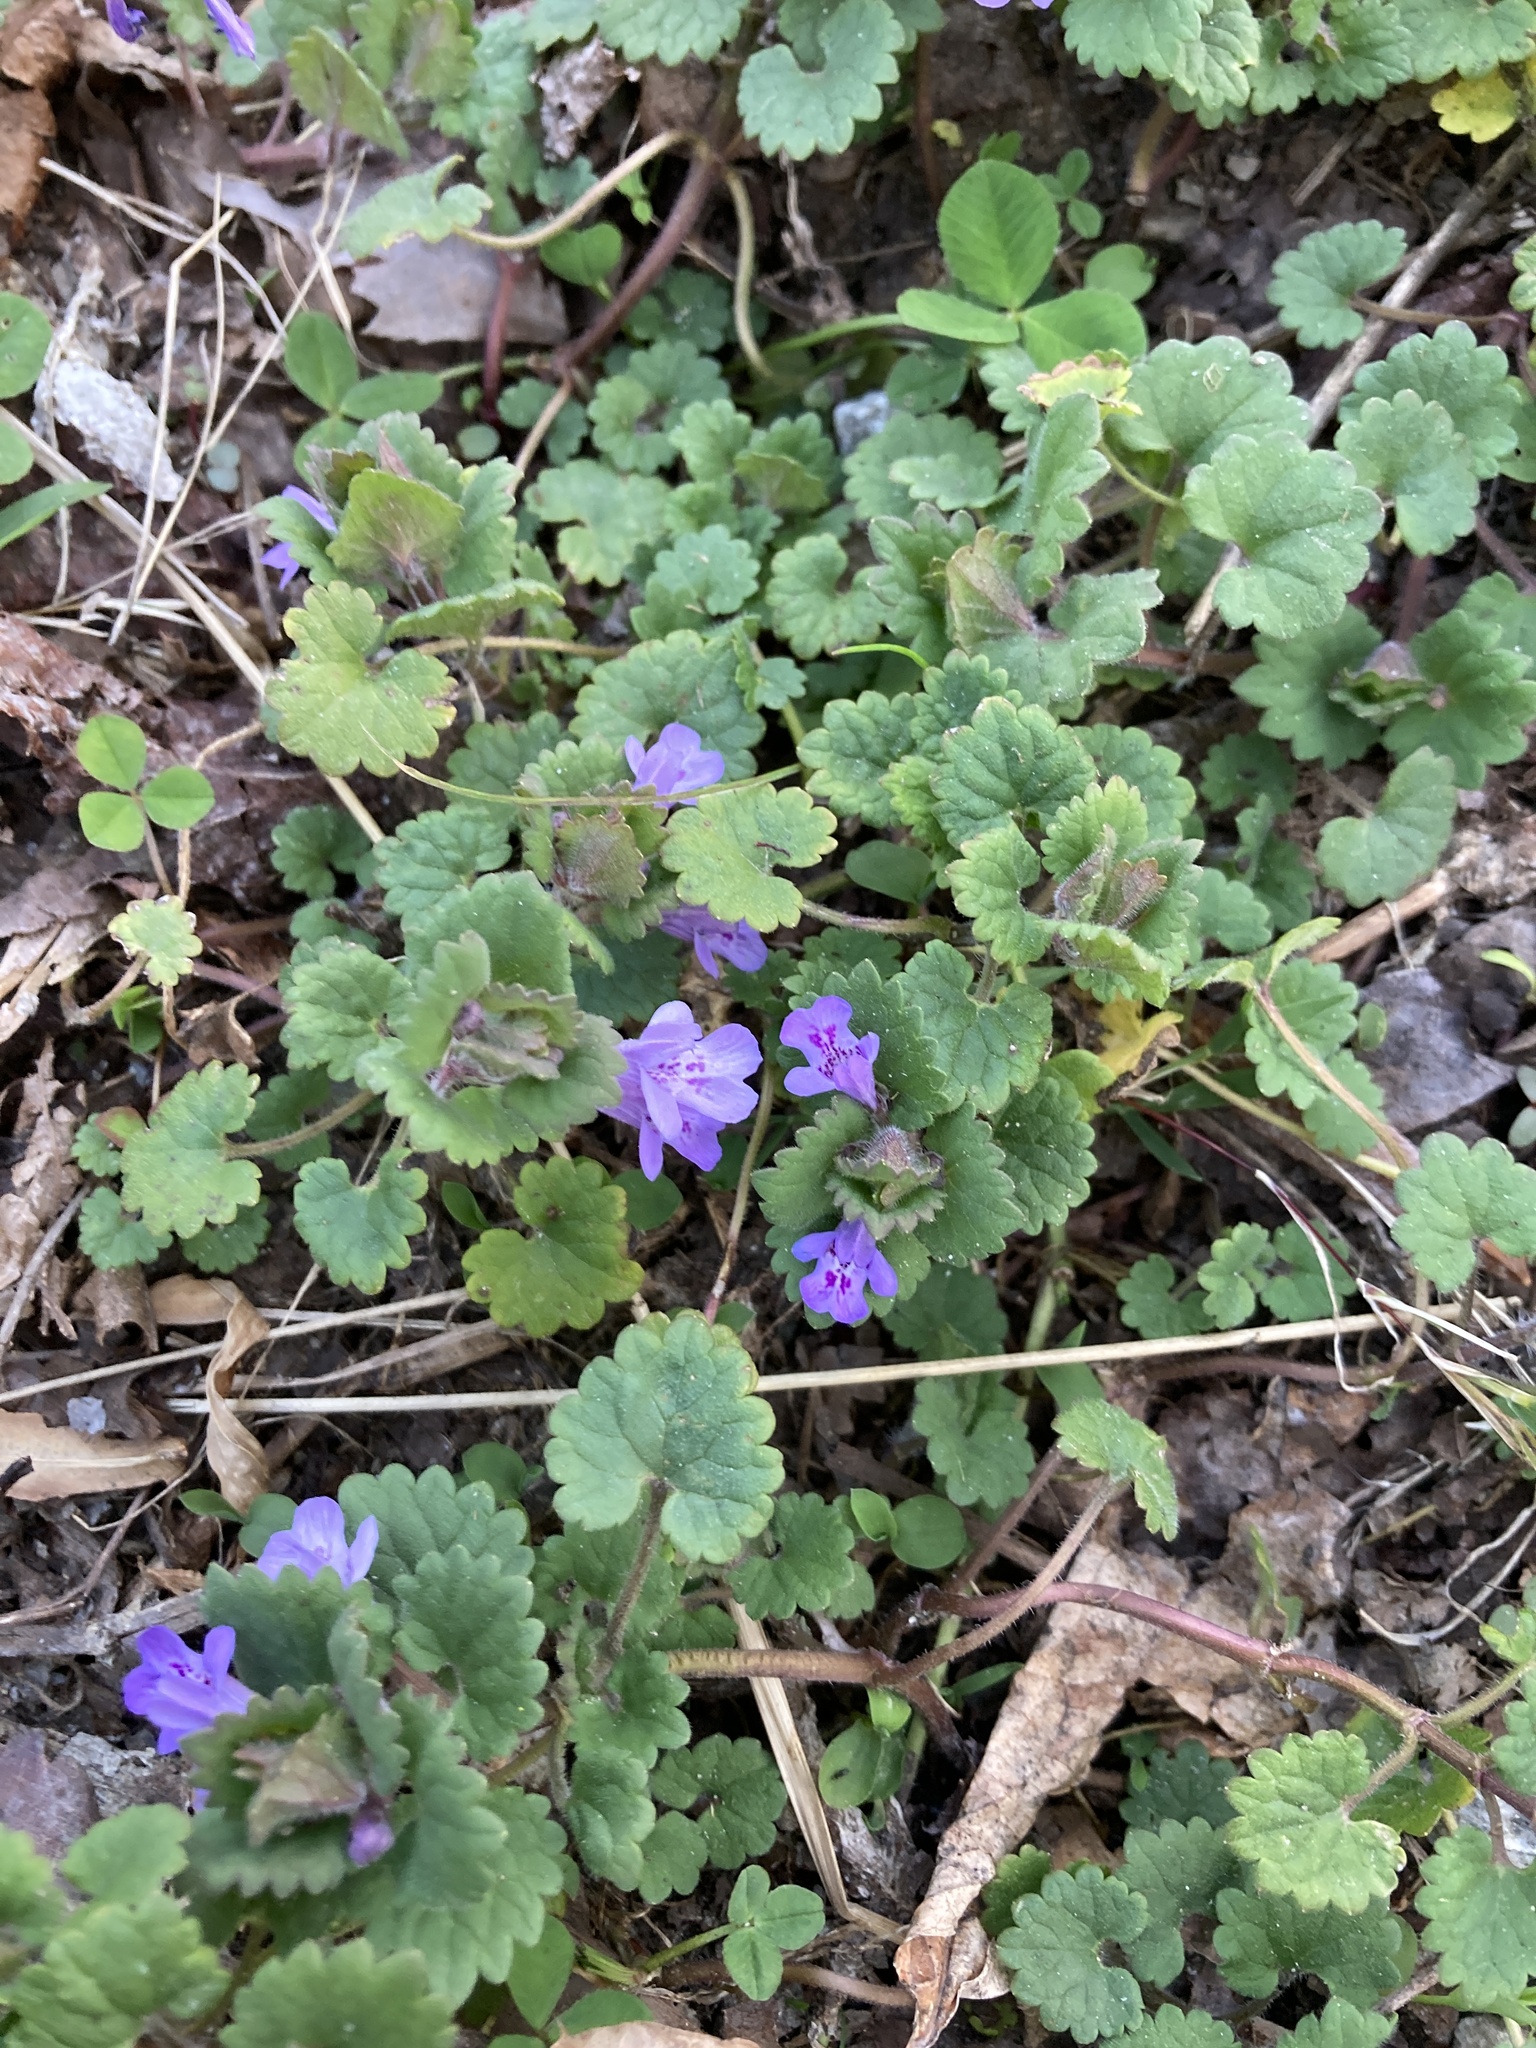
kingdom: Plantae
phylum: Tracheophyta
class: Magnoliopsida
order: Lamiales
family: Lamiaceae
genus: Glechoma
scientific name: Glechoma hederacea
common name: Ground ivy
